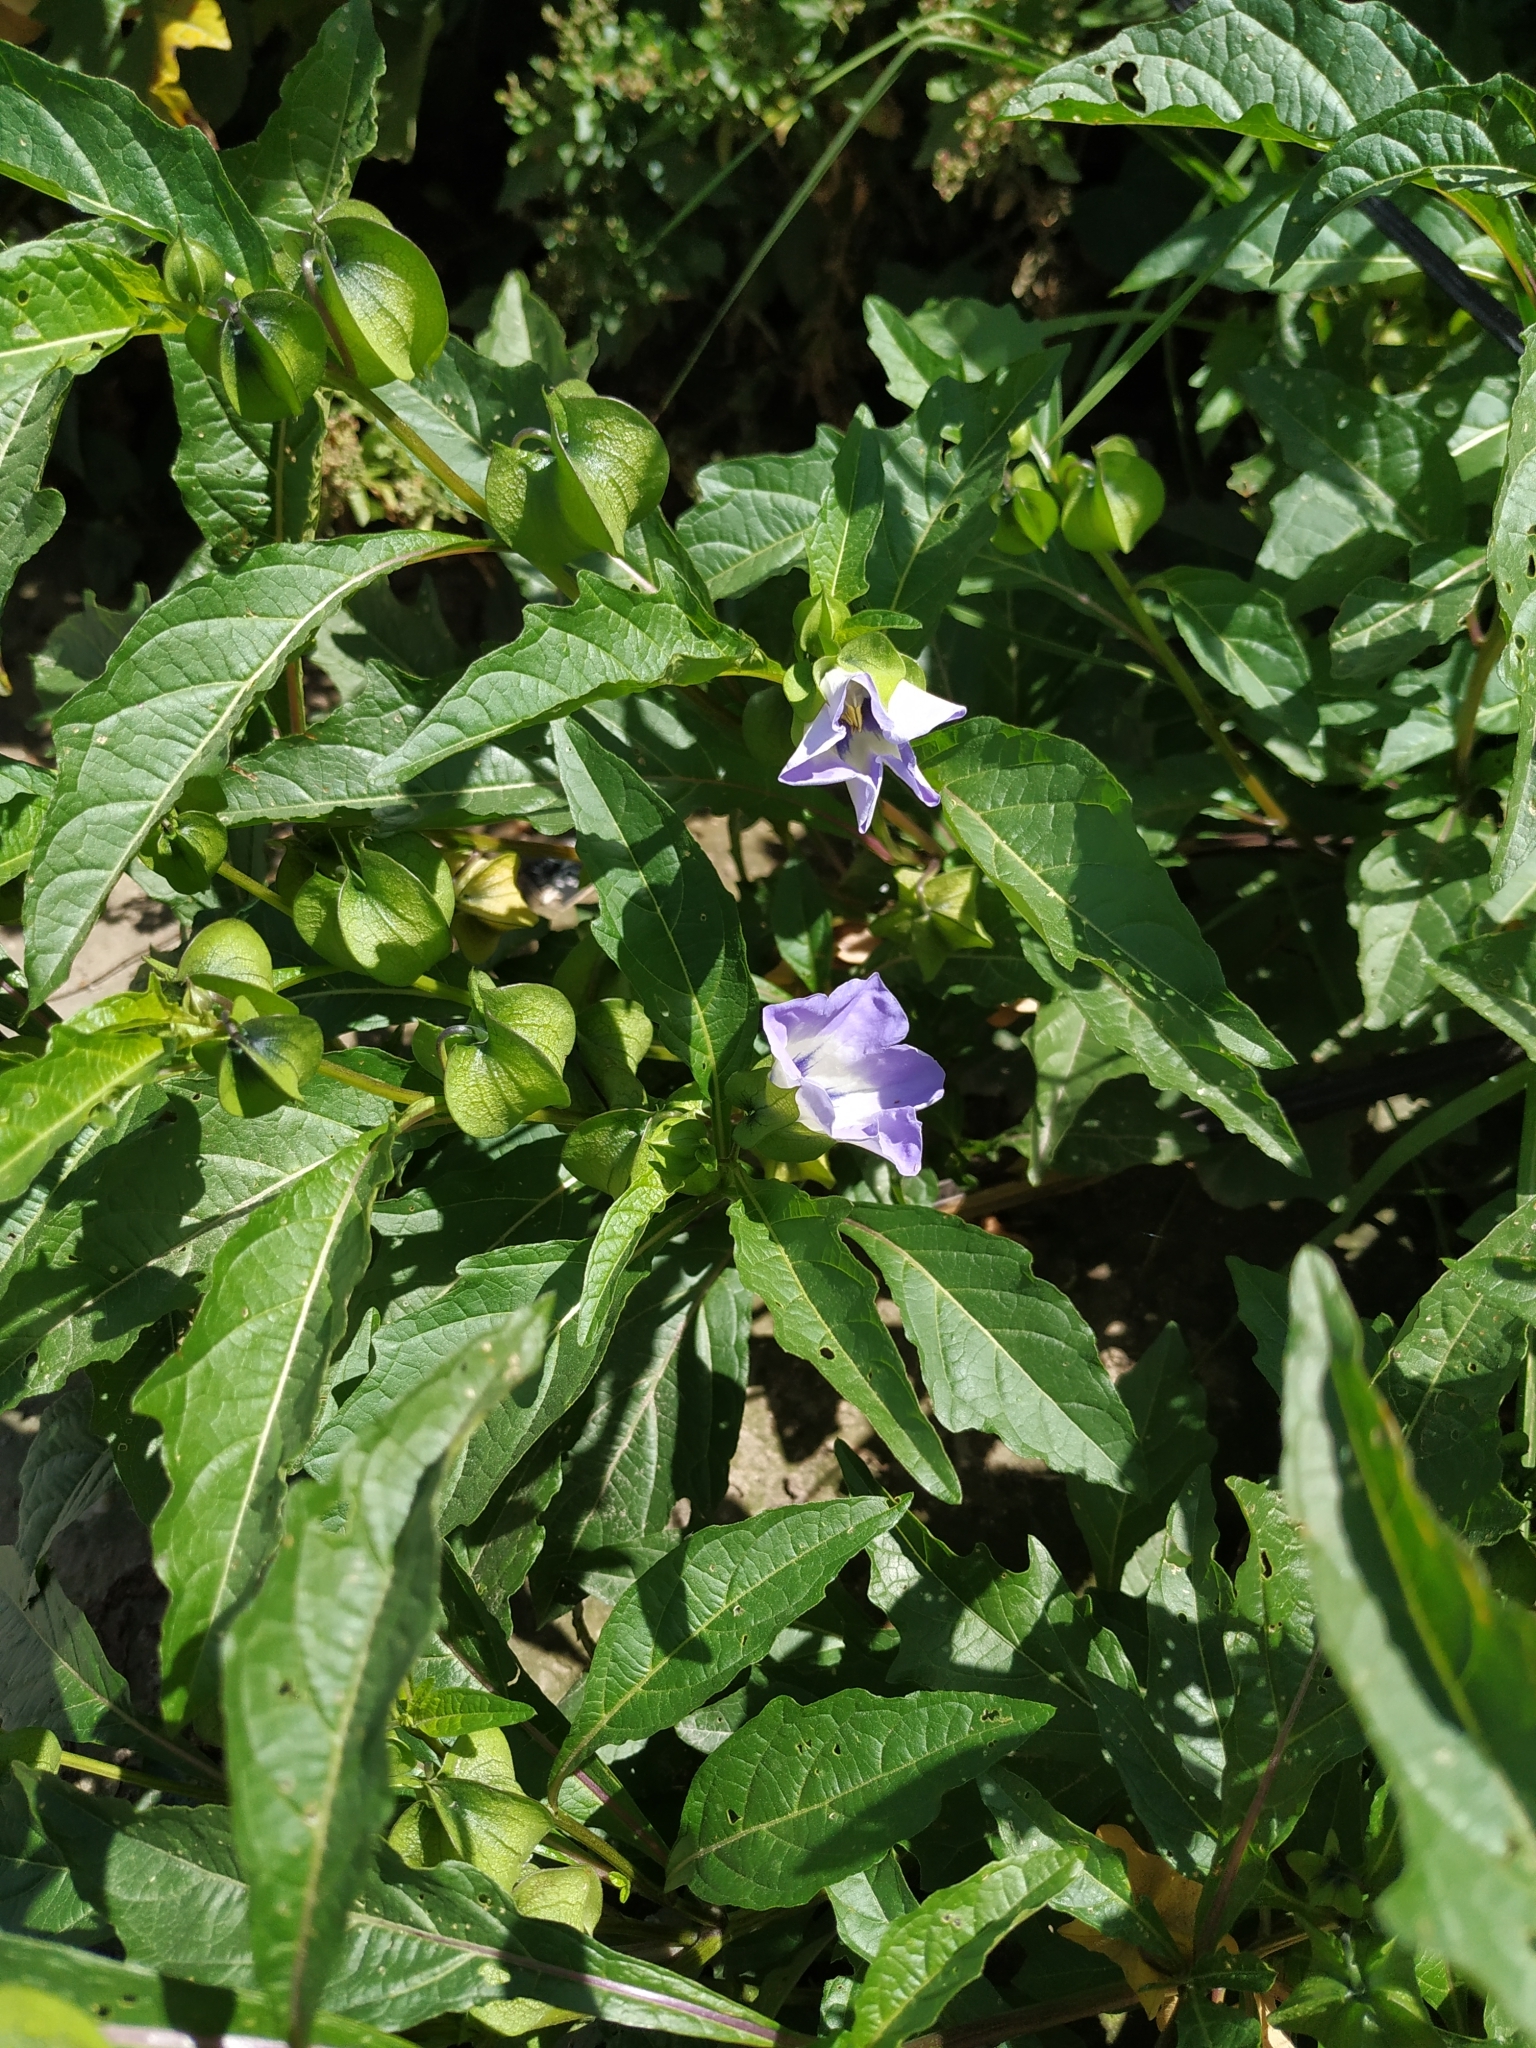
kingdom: Plantae
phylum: Tracheophyta
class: Magnoliopsida
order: Solanales
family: Solanaceae
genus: Nicandra
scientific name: Nicandra physalodes
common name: Apple-of-peru
